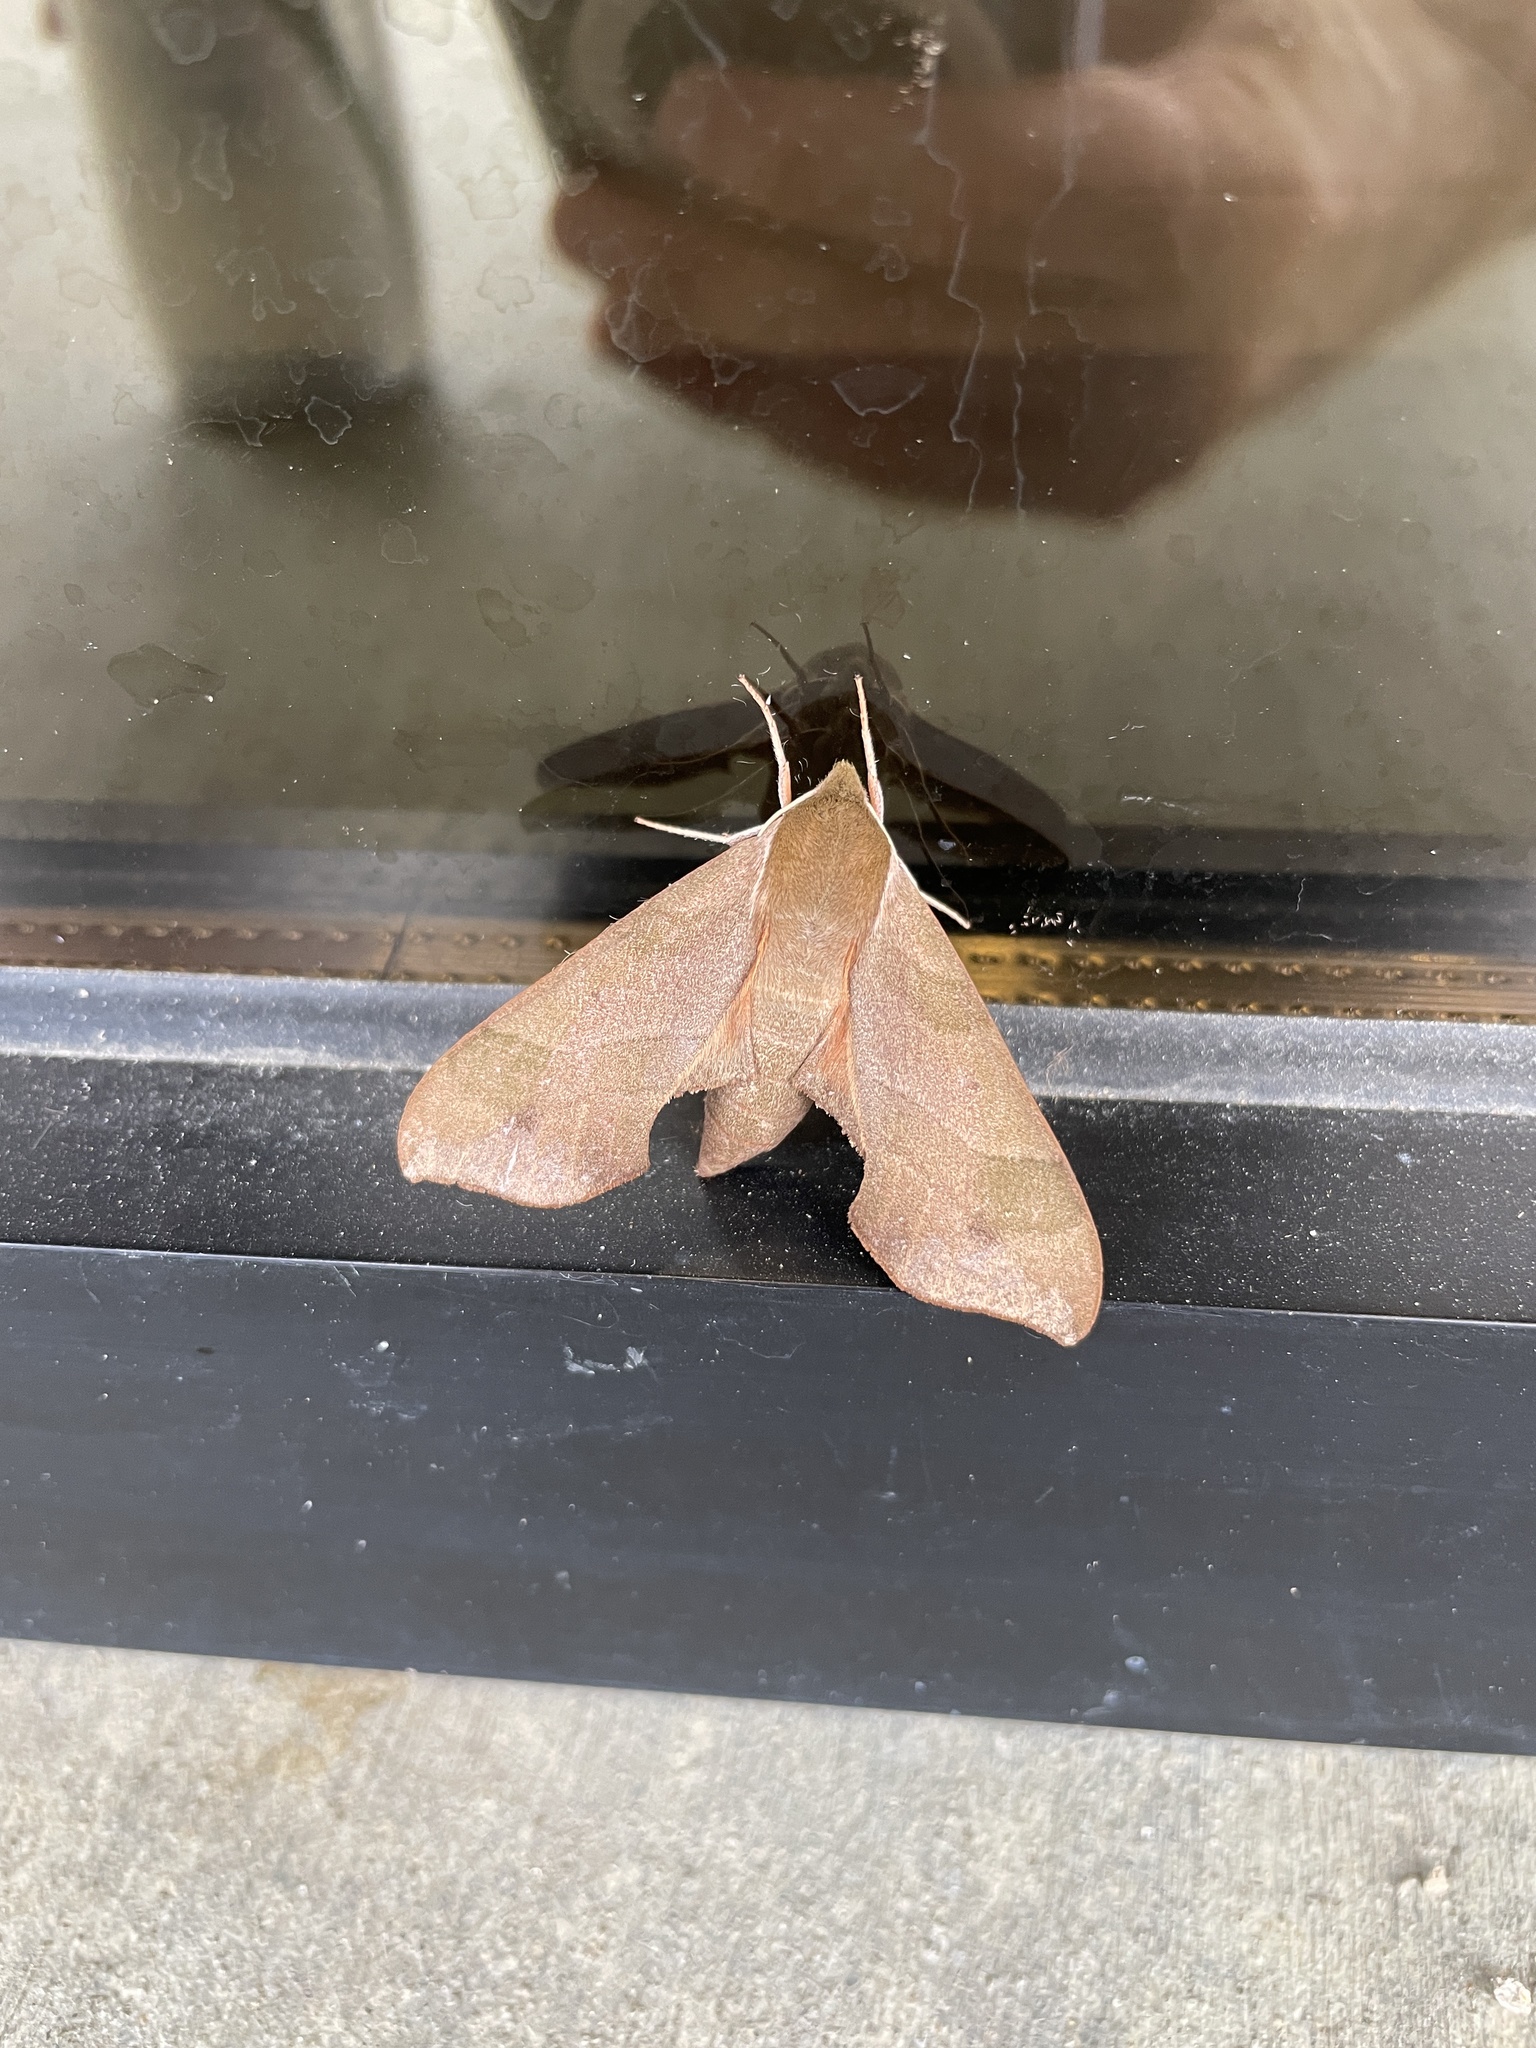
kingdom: Animalia
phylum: Arthropoda
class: Insecta
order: Lepidoptera
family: Sphingidae
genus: Darapsa
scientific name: Darapsa myron
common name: Hog sphinx
